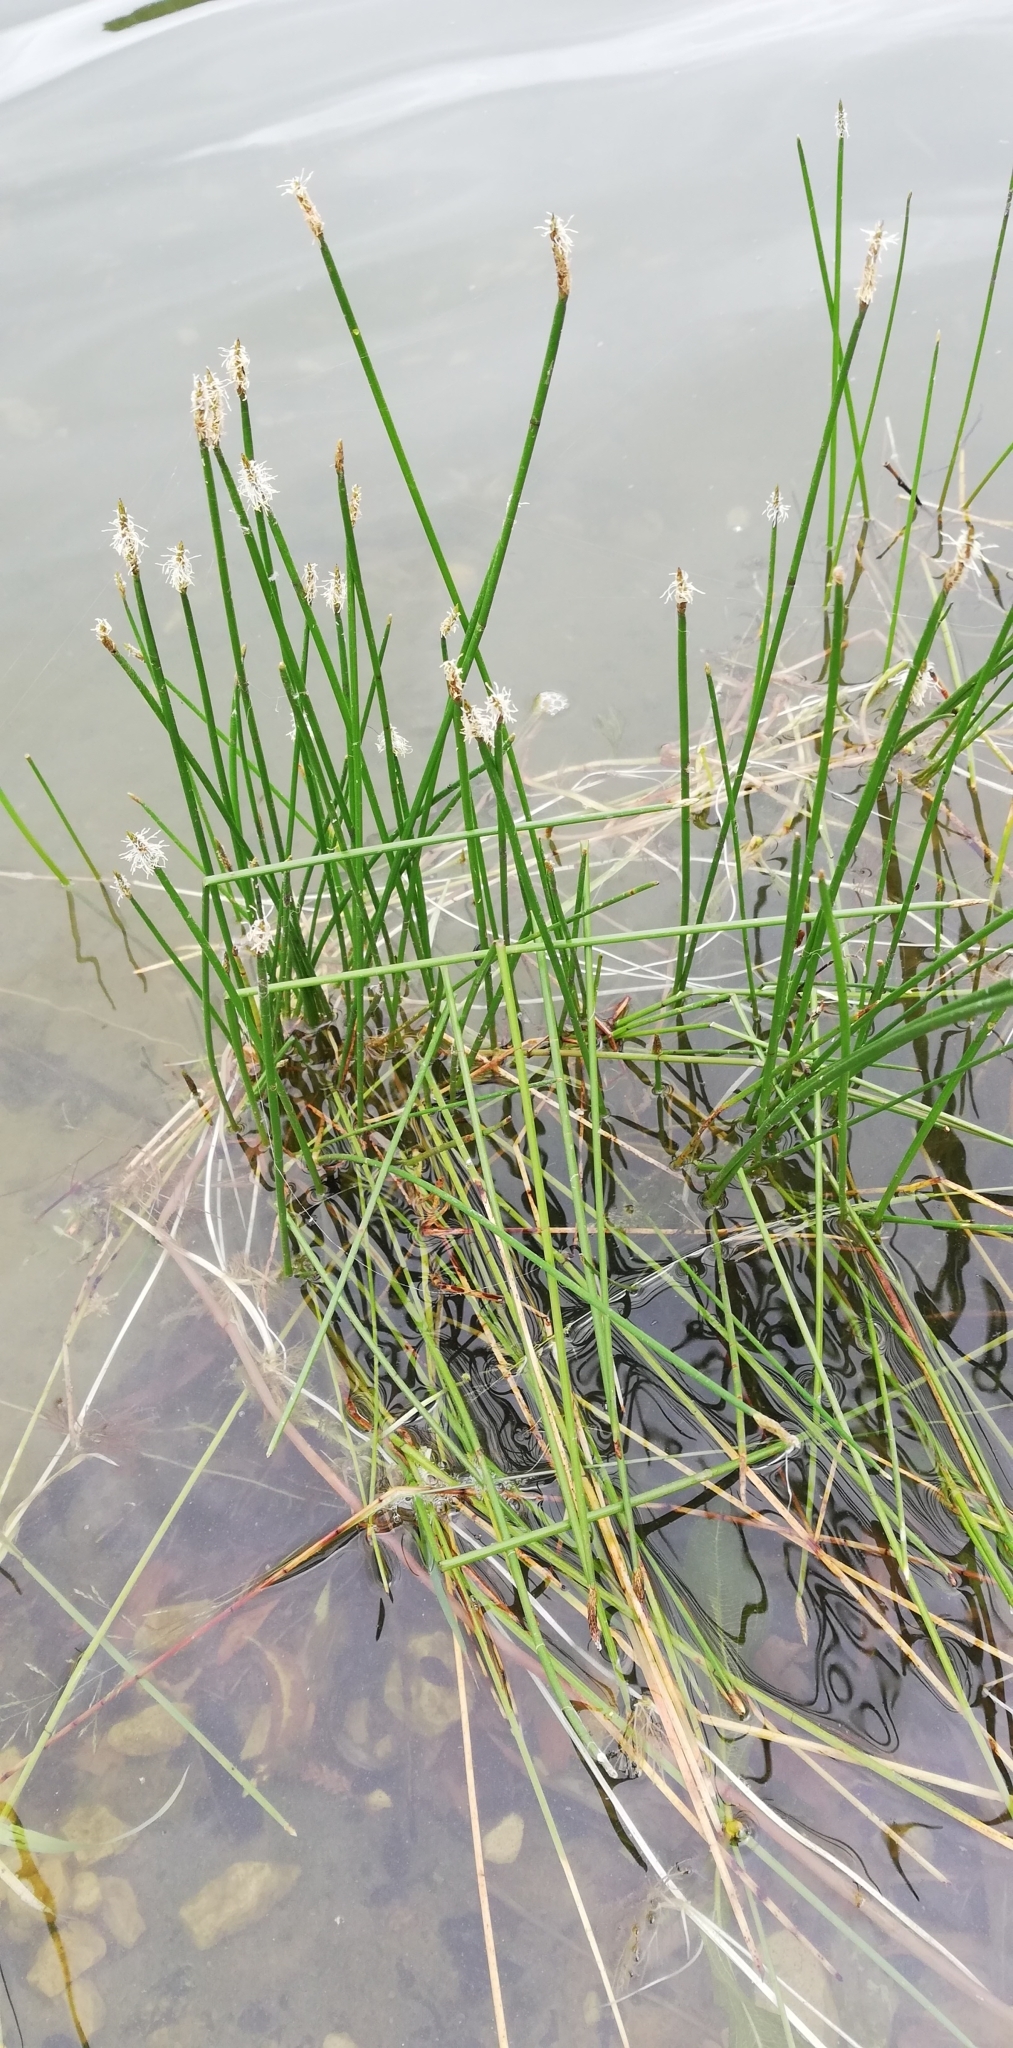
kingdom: Plantae
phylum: Tracheophyta
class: Liliopsida
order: Poales
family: Cyperaceae
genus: Eleocharis
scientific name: Eleocharis palustris
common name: Common spike-rush
